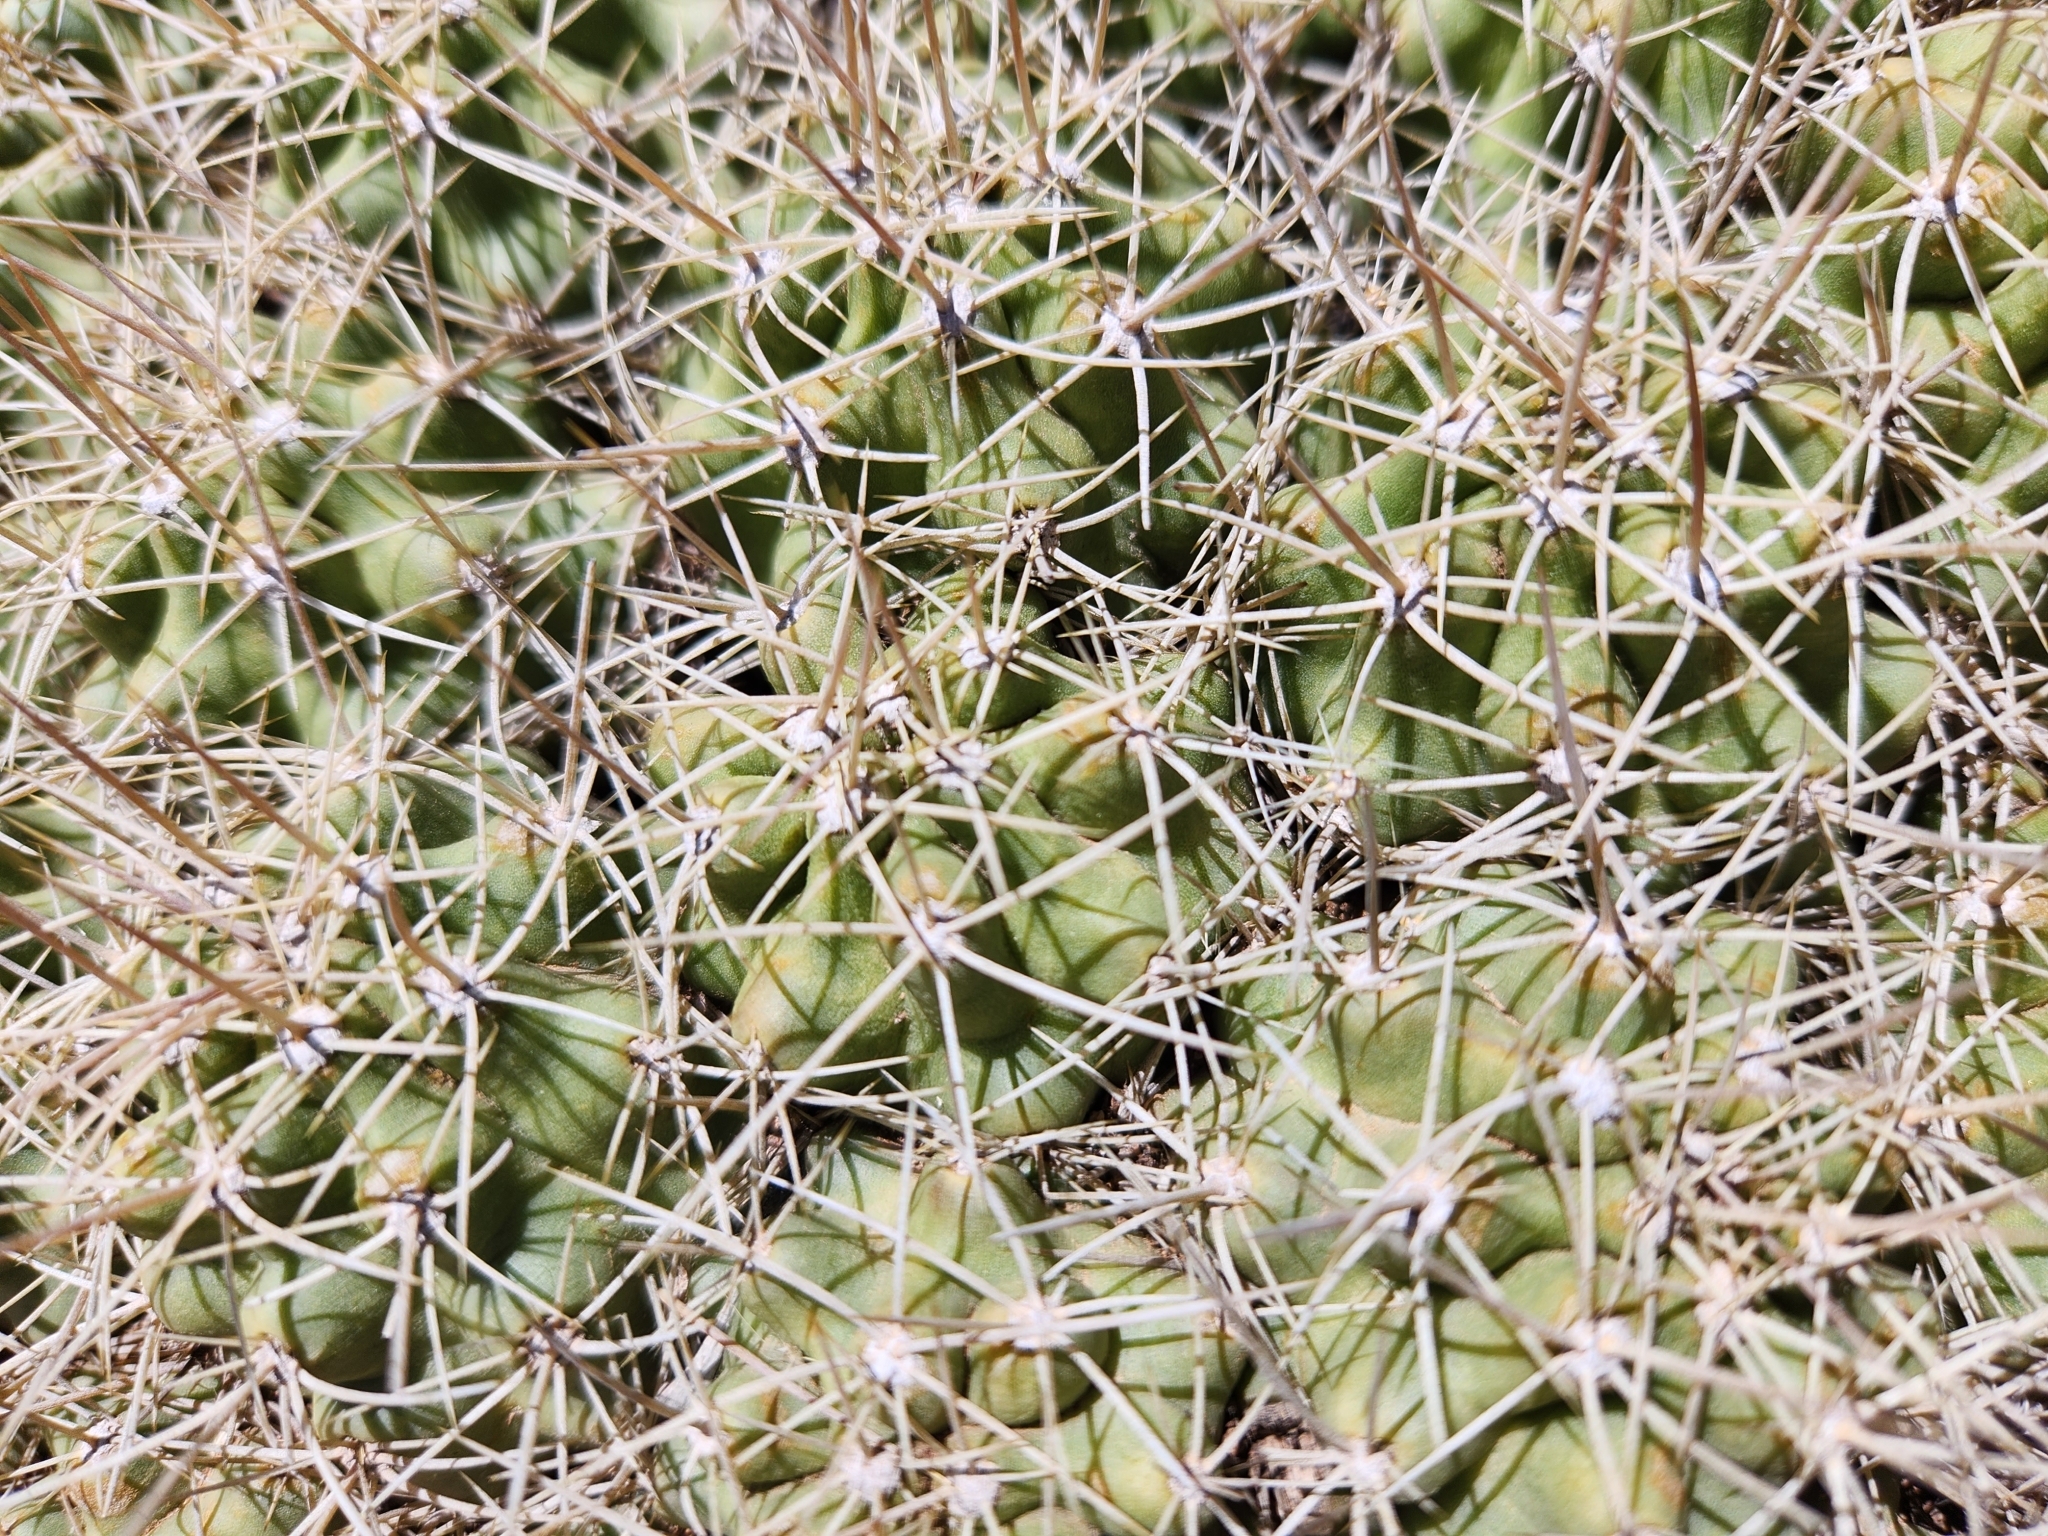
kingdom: Plantae
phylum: Tracheophyta
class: Magnoliopsida
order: Caryophyllales
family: Cactaceae
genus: Echinocereus
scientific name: Echinocereus triglochidiatus
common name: Claretcup hedgehog
